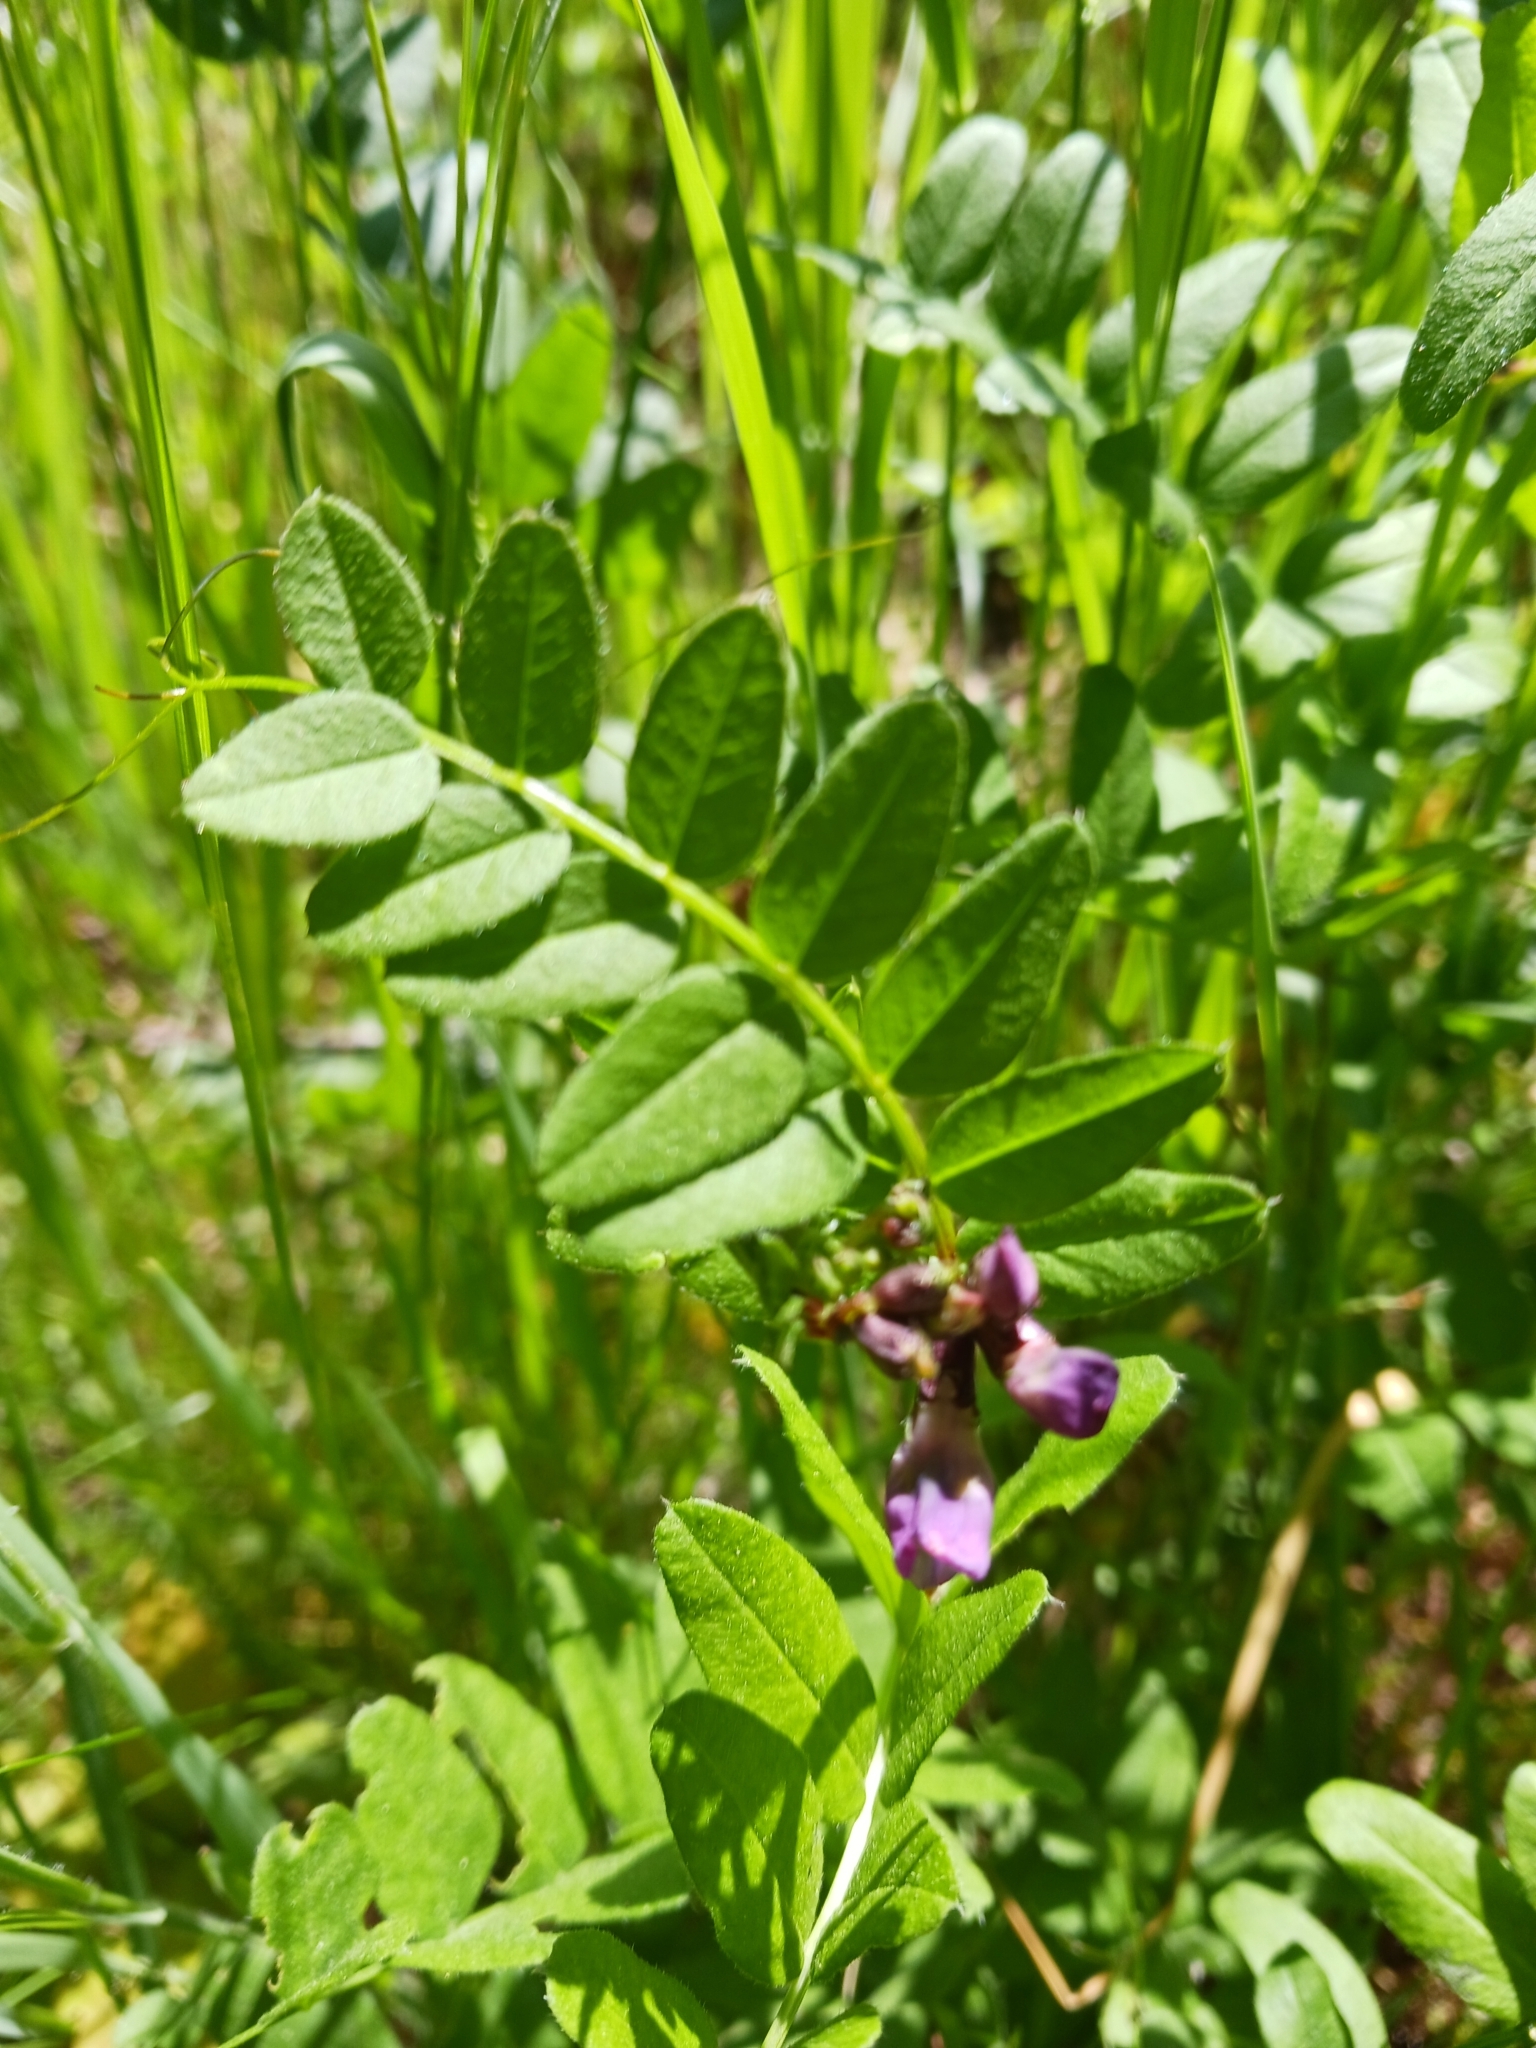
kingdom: Plantae
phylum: Tracheophyta
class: Magnoliopsida
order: Fabales
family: Fabaceae
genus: Vicia
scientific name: Vicia sepium
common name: Bush vetch
